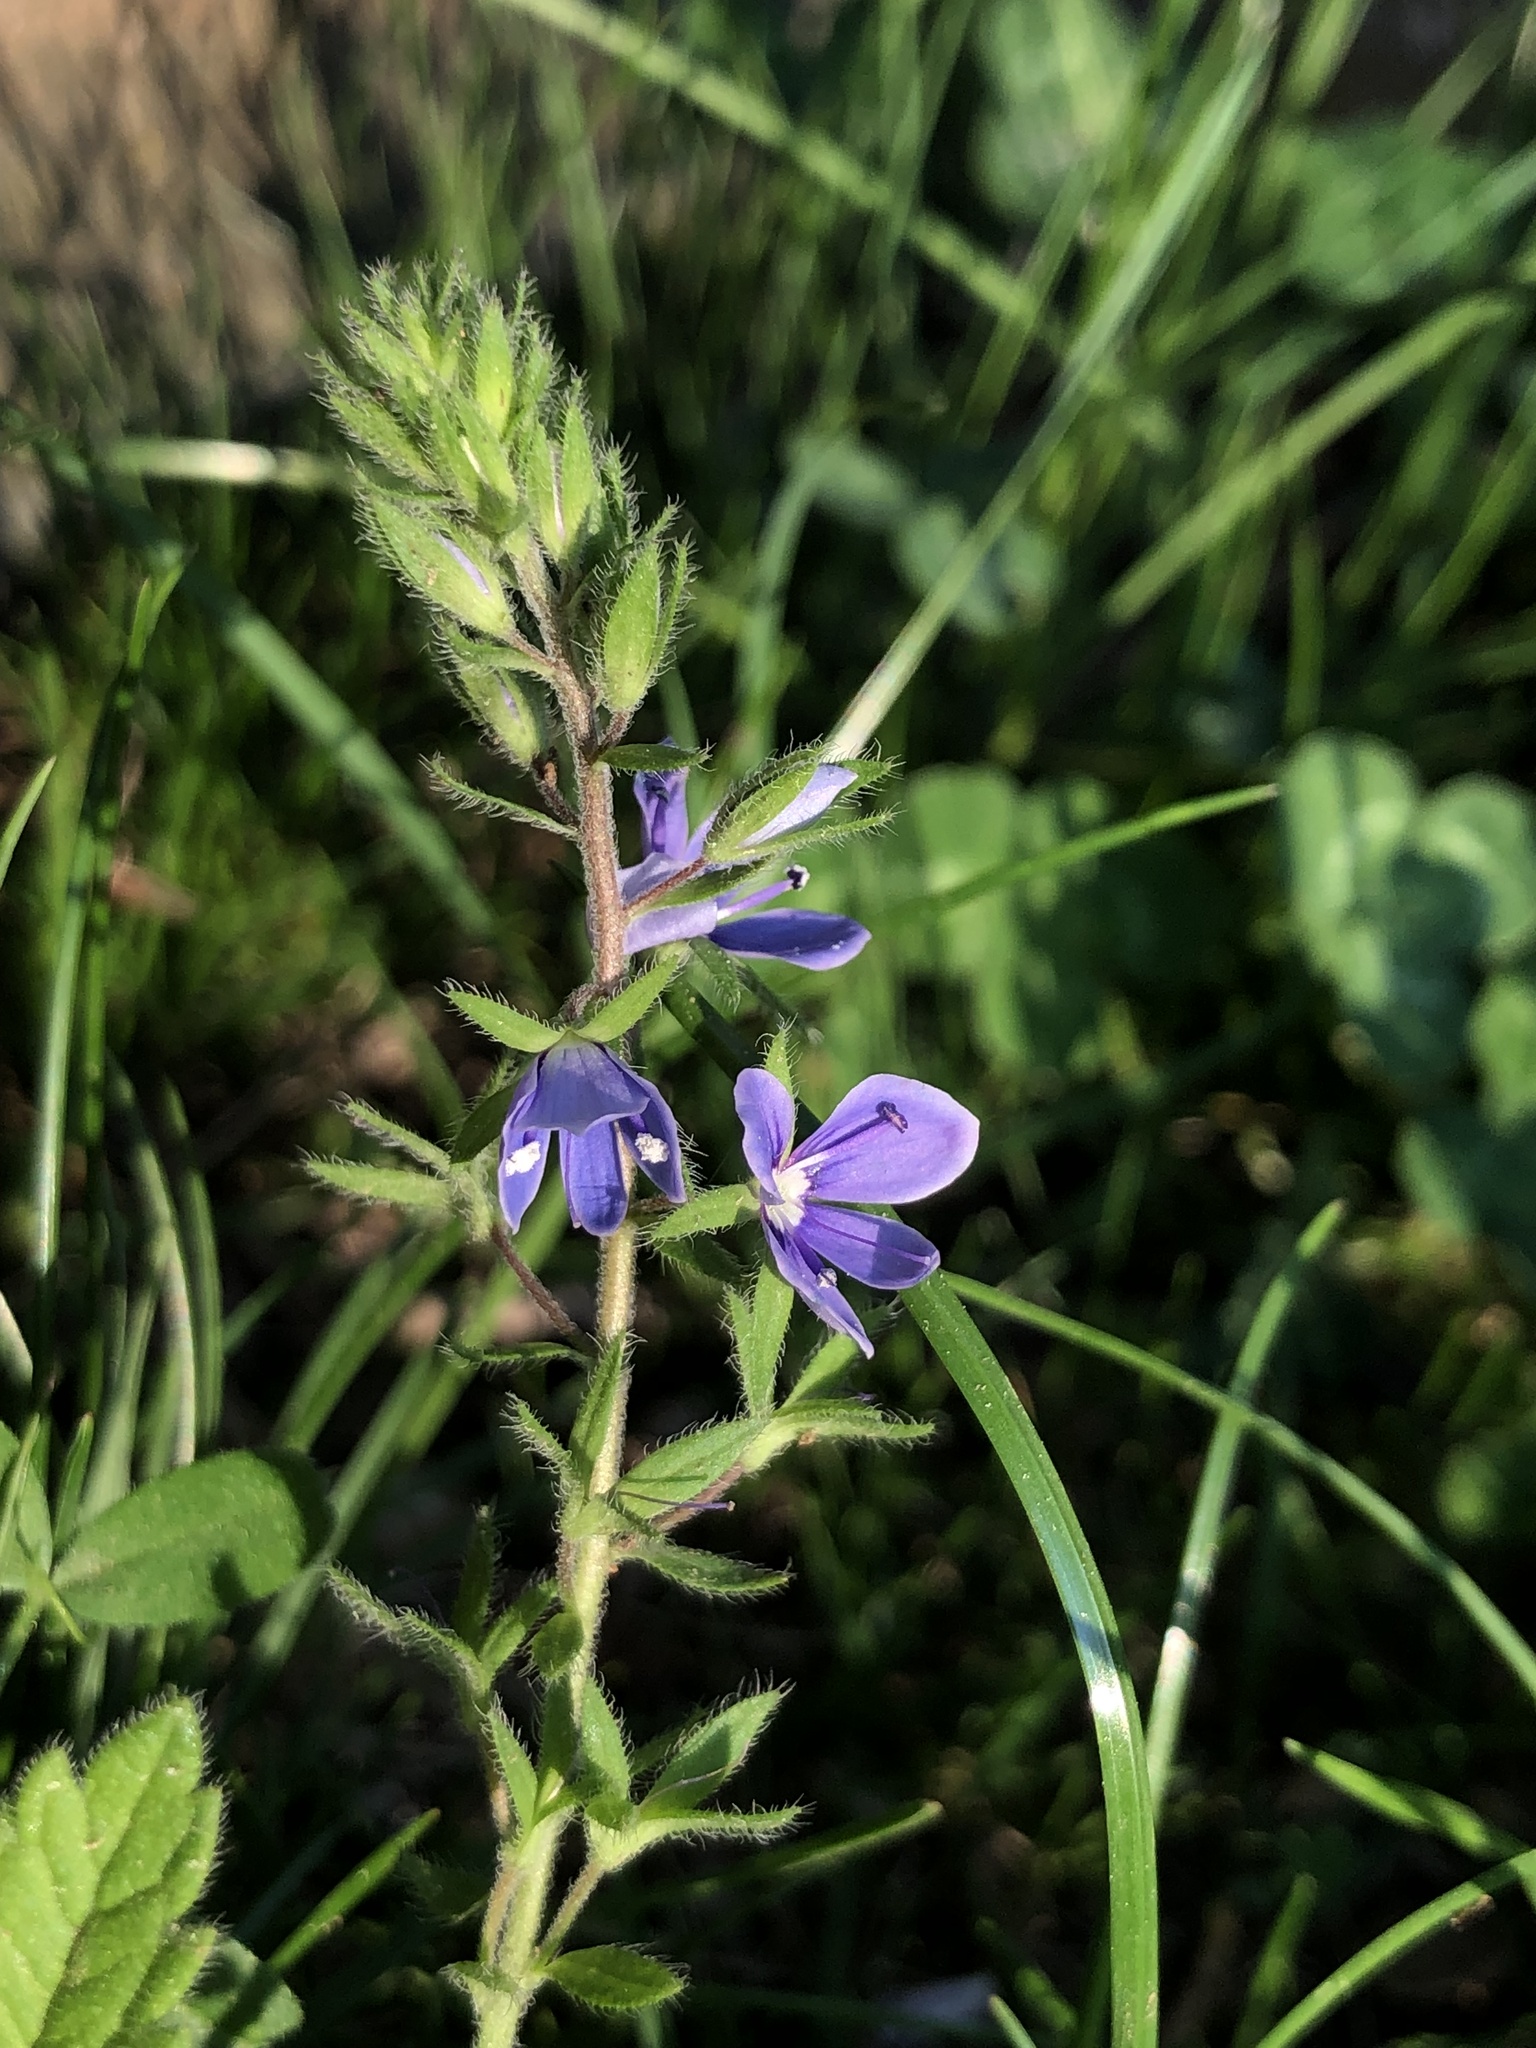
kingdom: Plantae
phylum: Tracheophyta
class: Magnoliopsida
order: Lamiales
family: Plantaginaceae
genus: Veronica
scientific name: Veronica chamaedrys
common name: Germander speedwell
